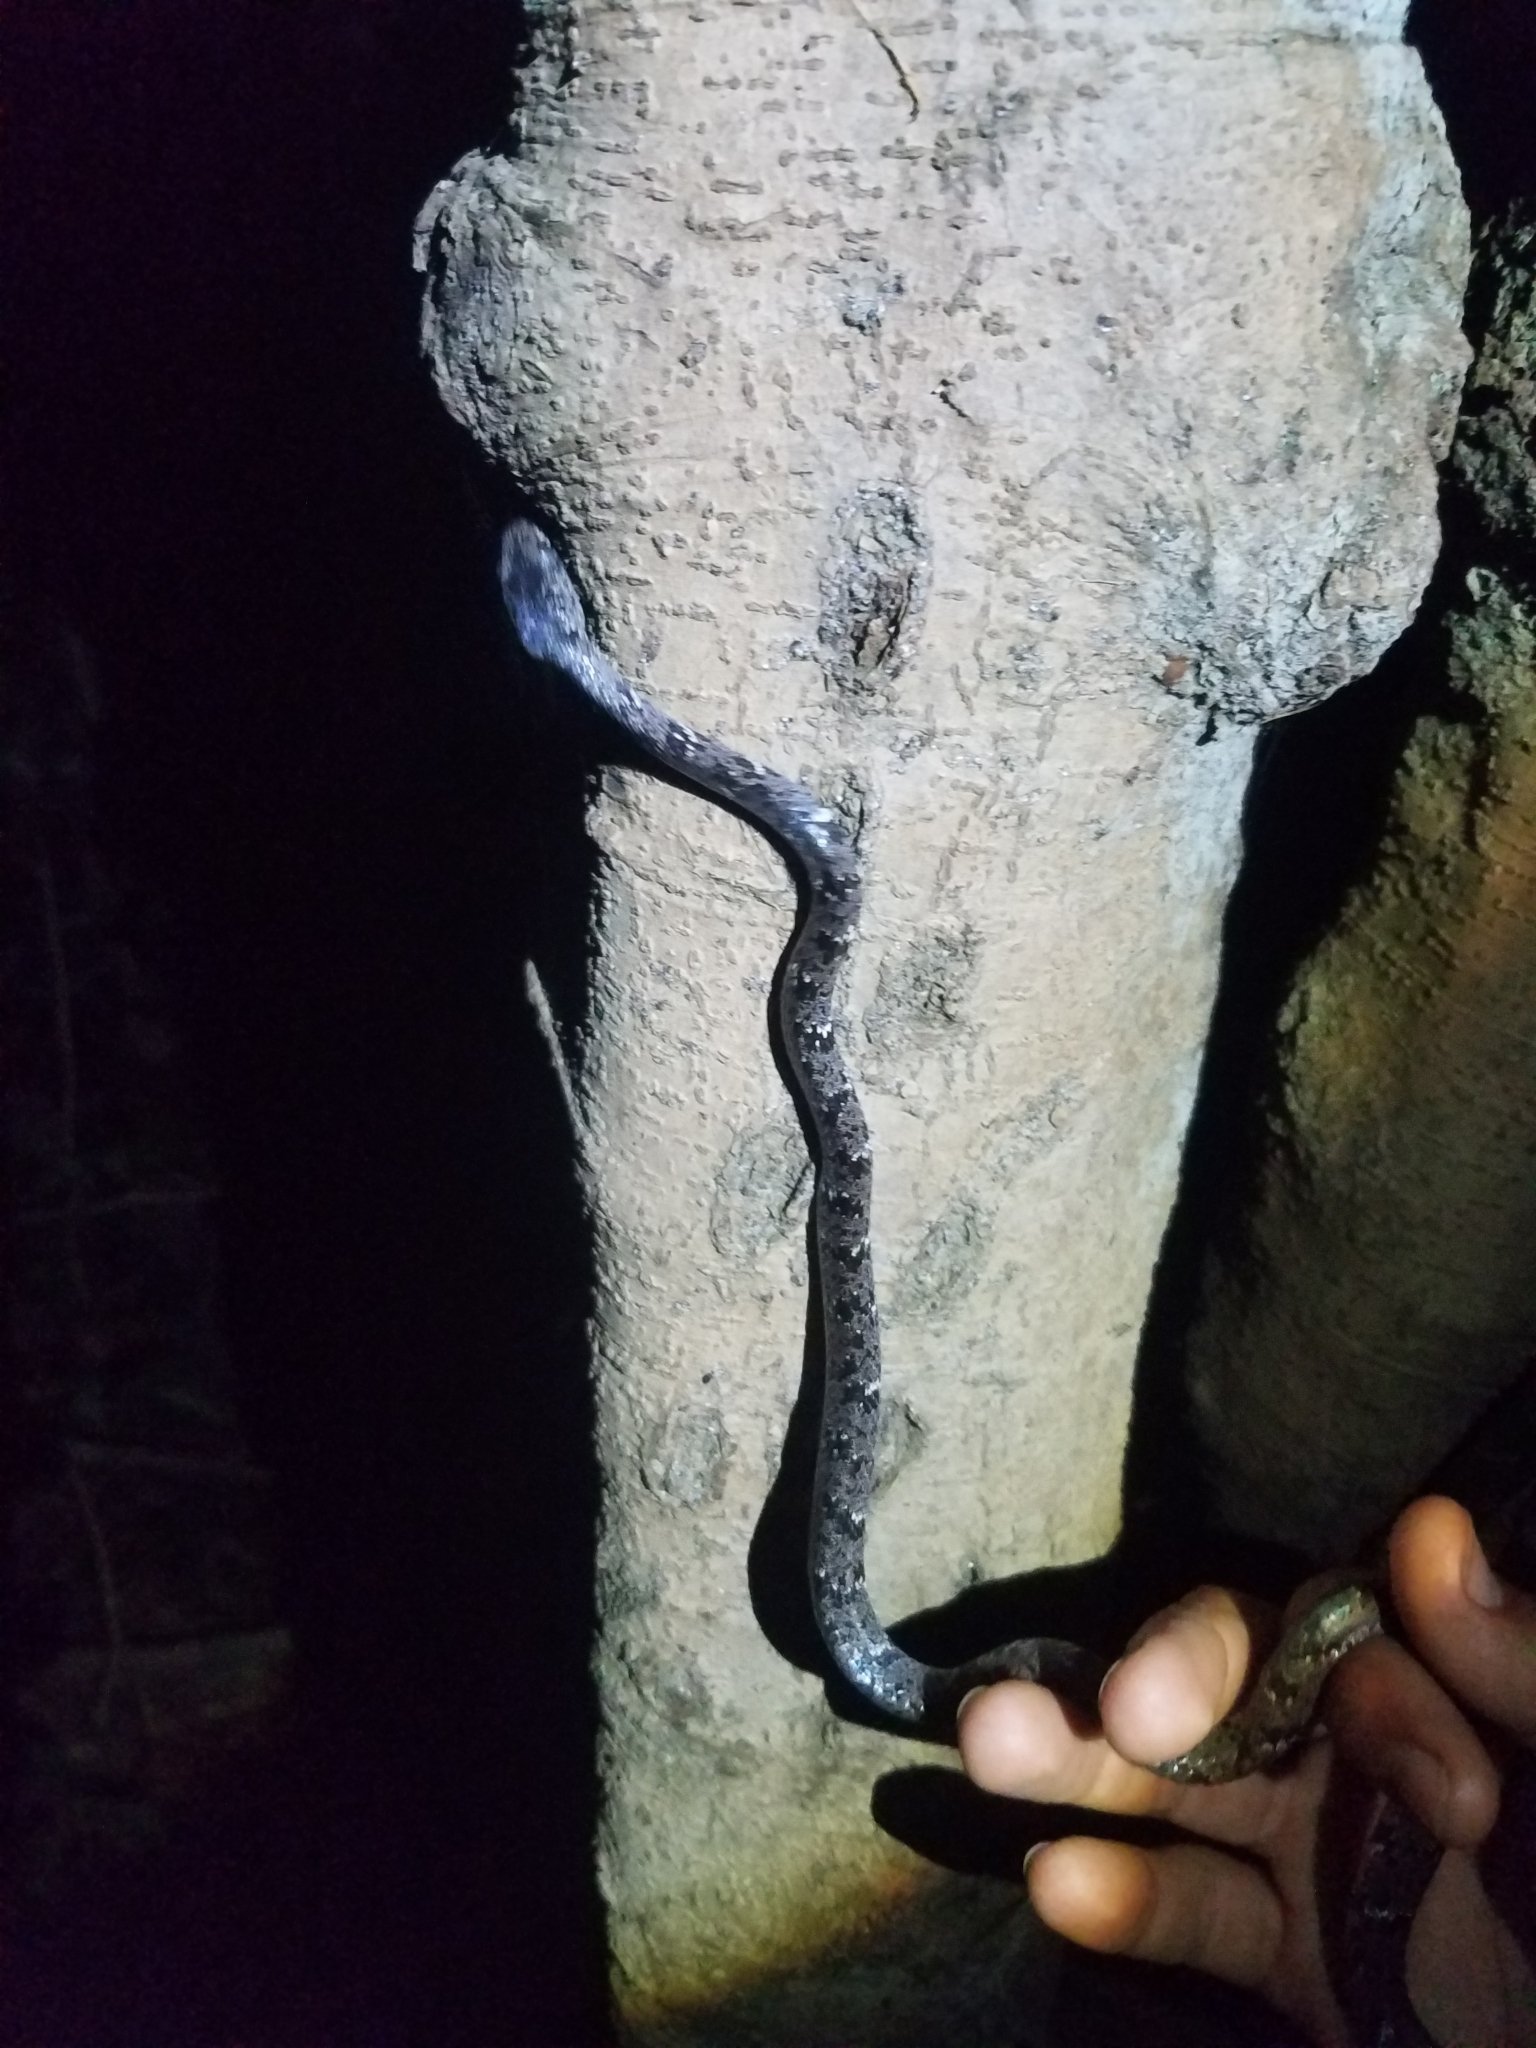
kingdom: Animalia
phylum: Chordata
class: Squamata
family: Colubridae
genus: Sibon
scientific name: Sibon nebulatus
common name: Cloudy snail-eating snake
